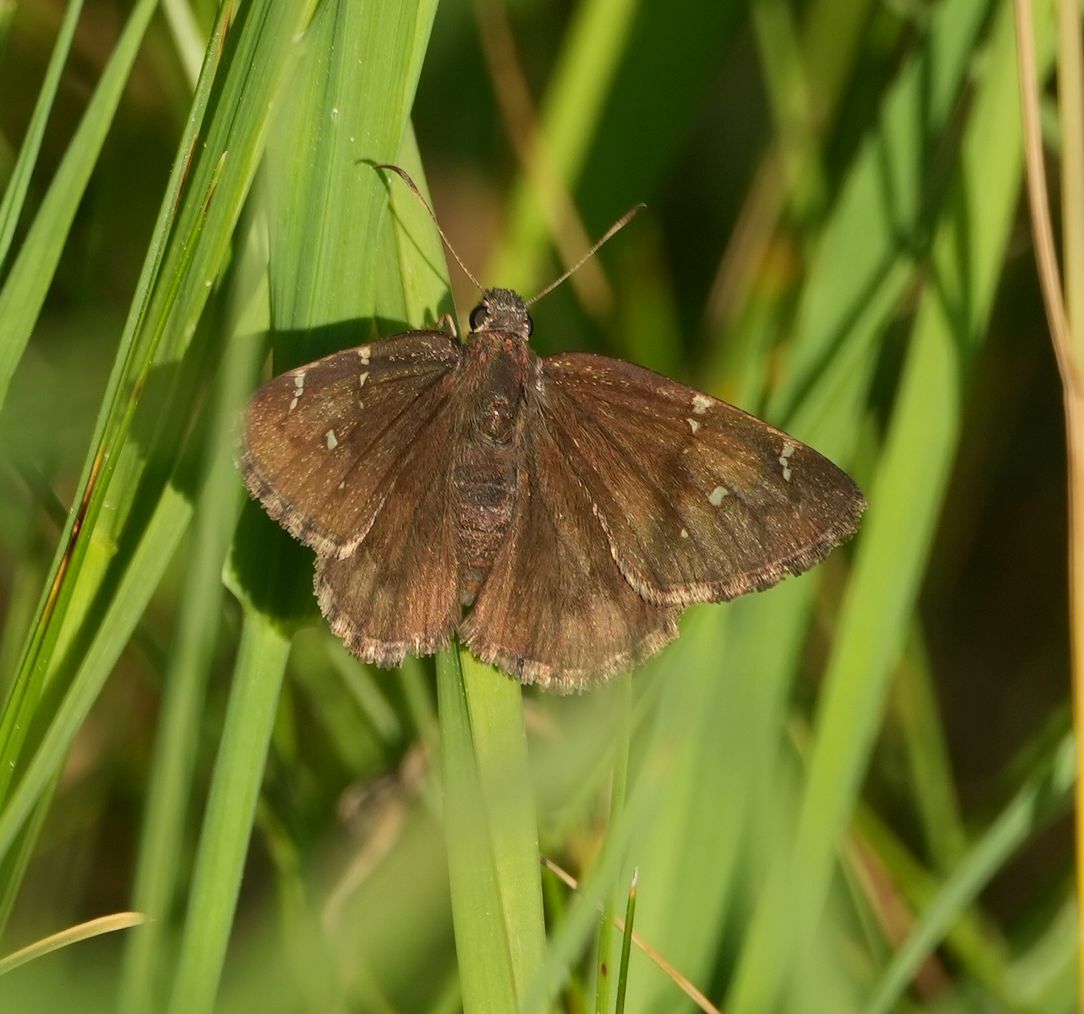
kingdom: Animalia
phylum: Arthropoda
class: Insecta
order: Lepidoptera
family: Hesperiidae
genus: Thorybes
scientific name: Thorybes pylades
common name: Northern cloudywing
